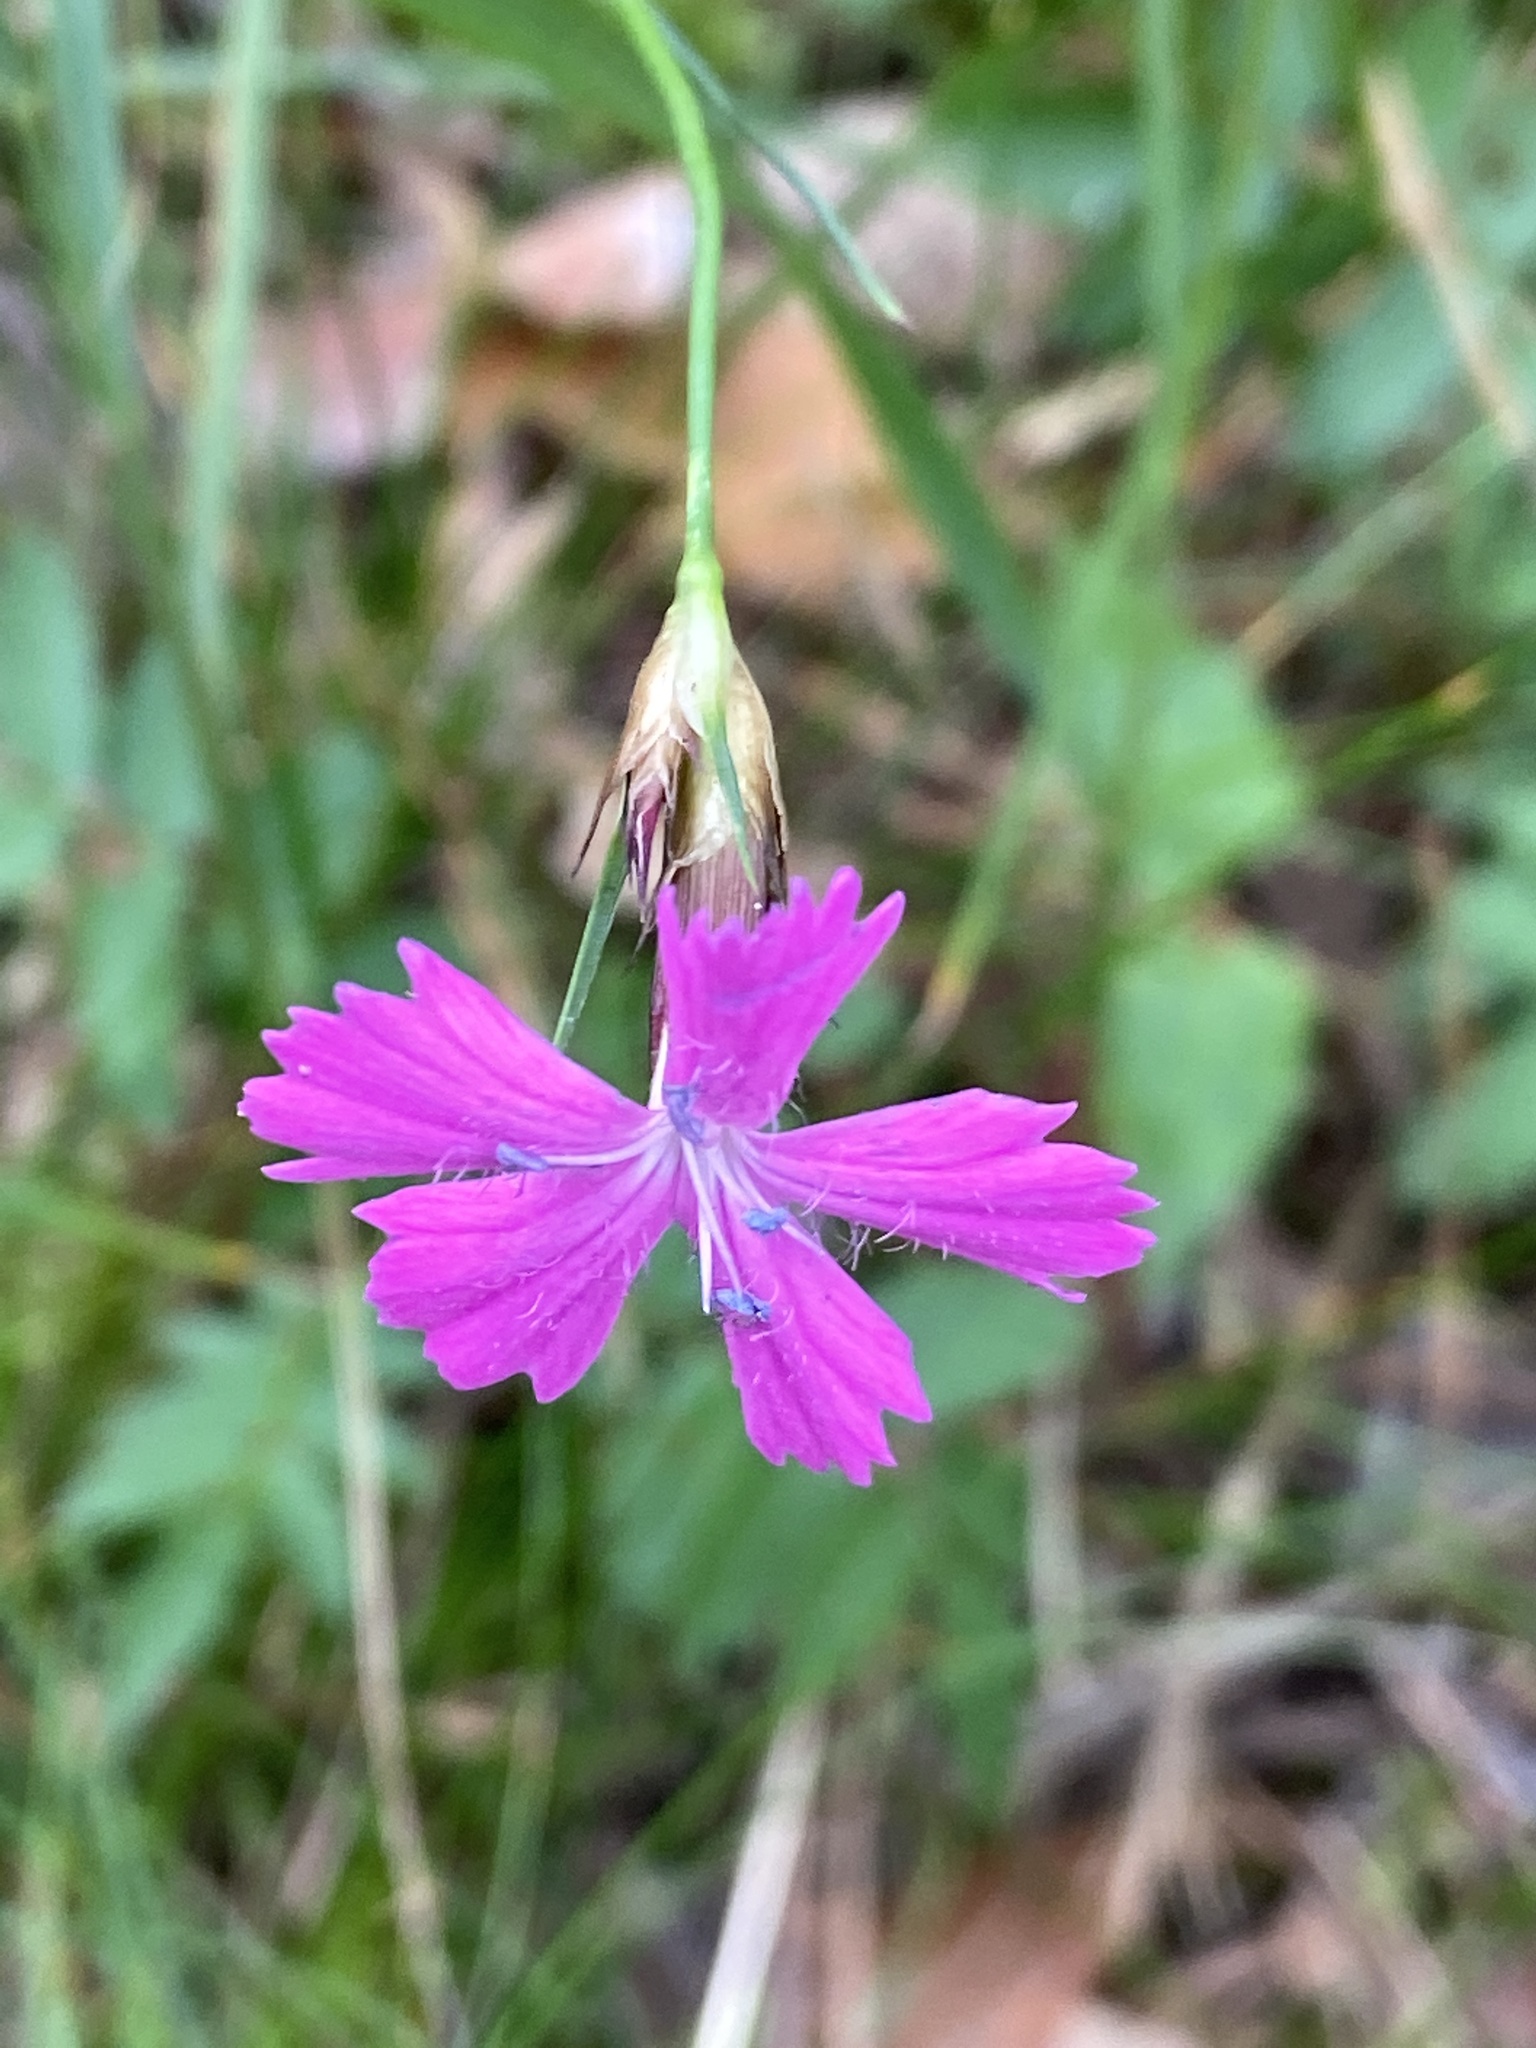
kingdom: Plantae
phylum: Tracheophyta
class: Magnoliopsida
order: Caryophyllales
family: Caryophyllaceae
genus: Dianthus
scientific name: Dianthus carthusianorum
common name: Carthusian pink
